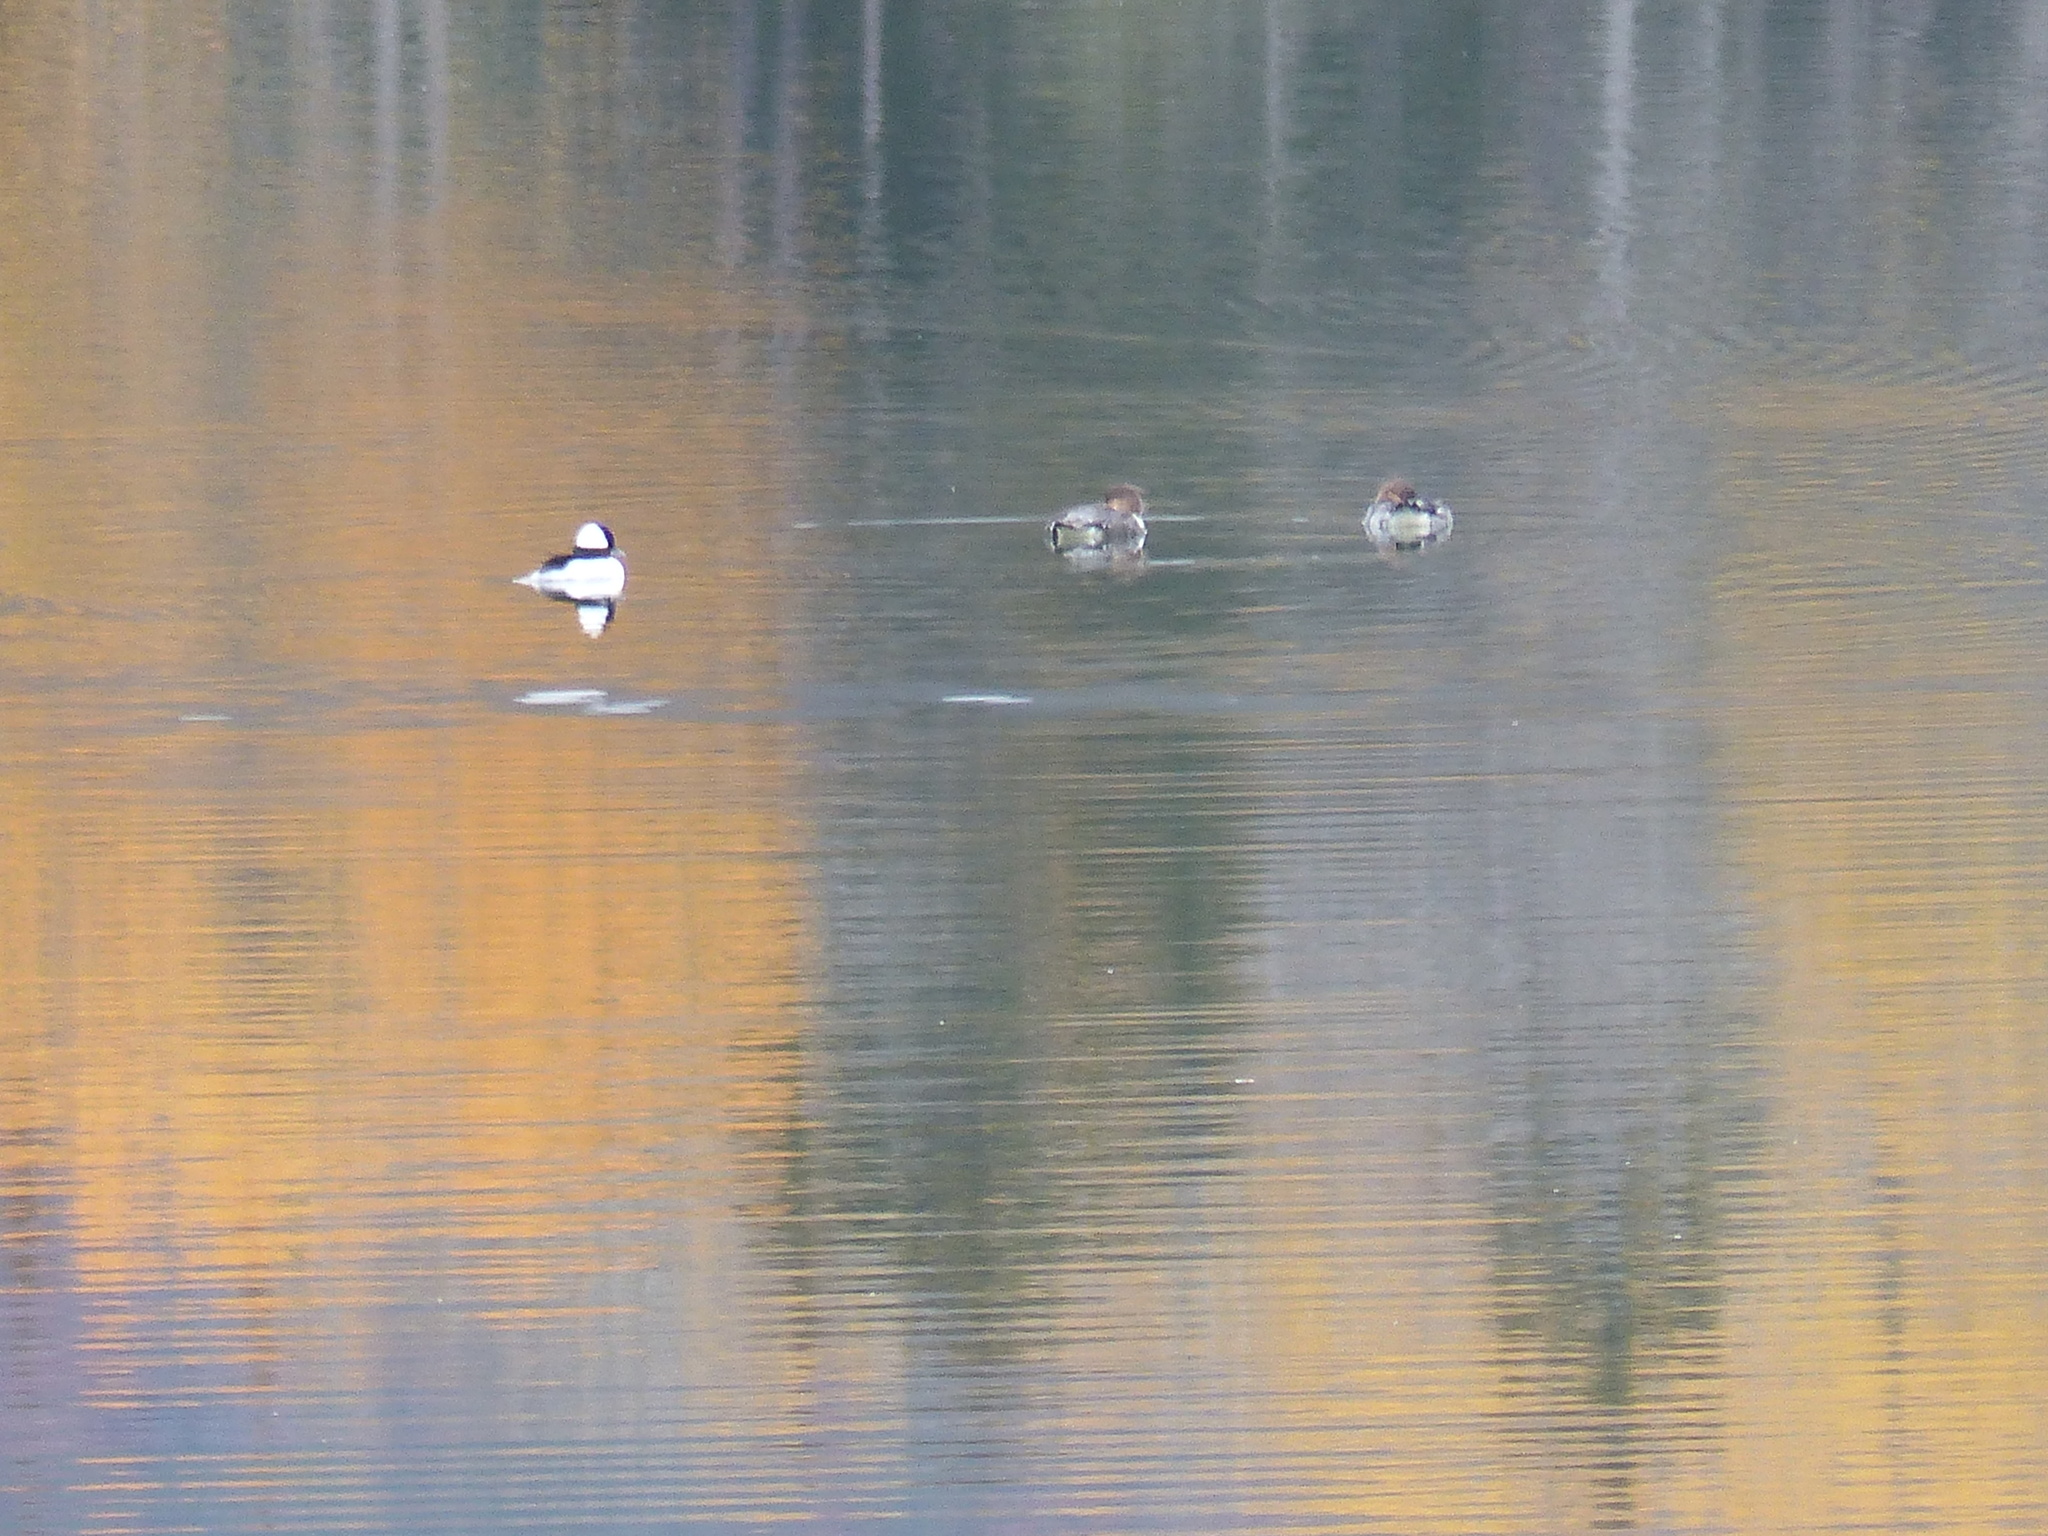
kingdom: Animalia
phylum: Chordata
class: Aves
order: Anseriformes
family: Anatidae
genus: Bucephala
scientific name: Bucephala albeola
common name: Bufflehead
